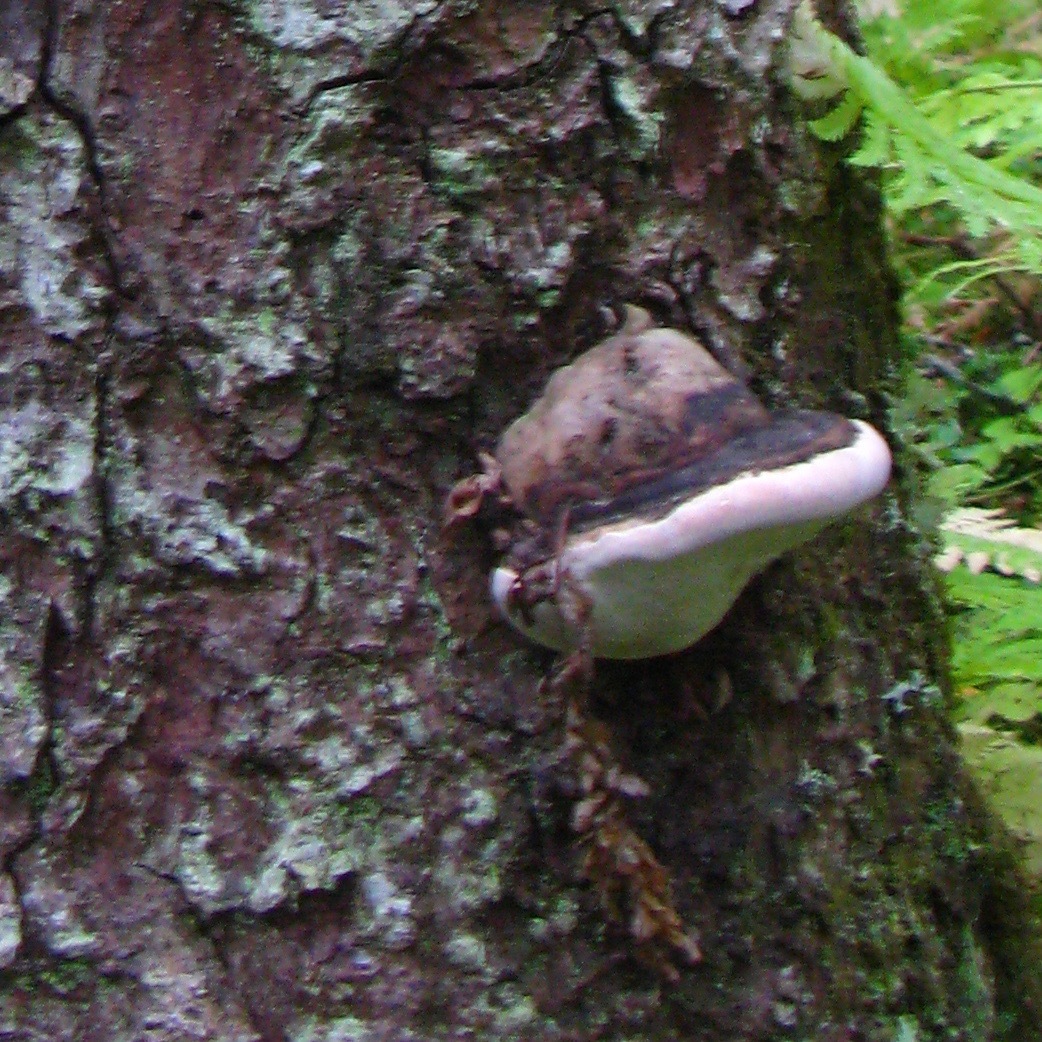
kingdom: Fungi
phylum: Basidiomycota
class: Agaricomycetes
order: Polyporales
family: Fomitopsidaceae
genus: Fomitopsis
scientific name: Fomitopsis ochracea
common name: American brown fomitopsis
